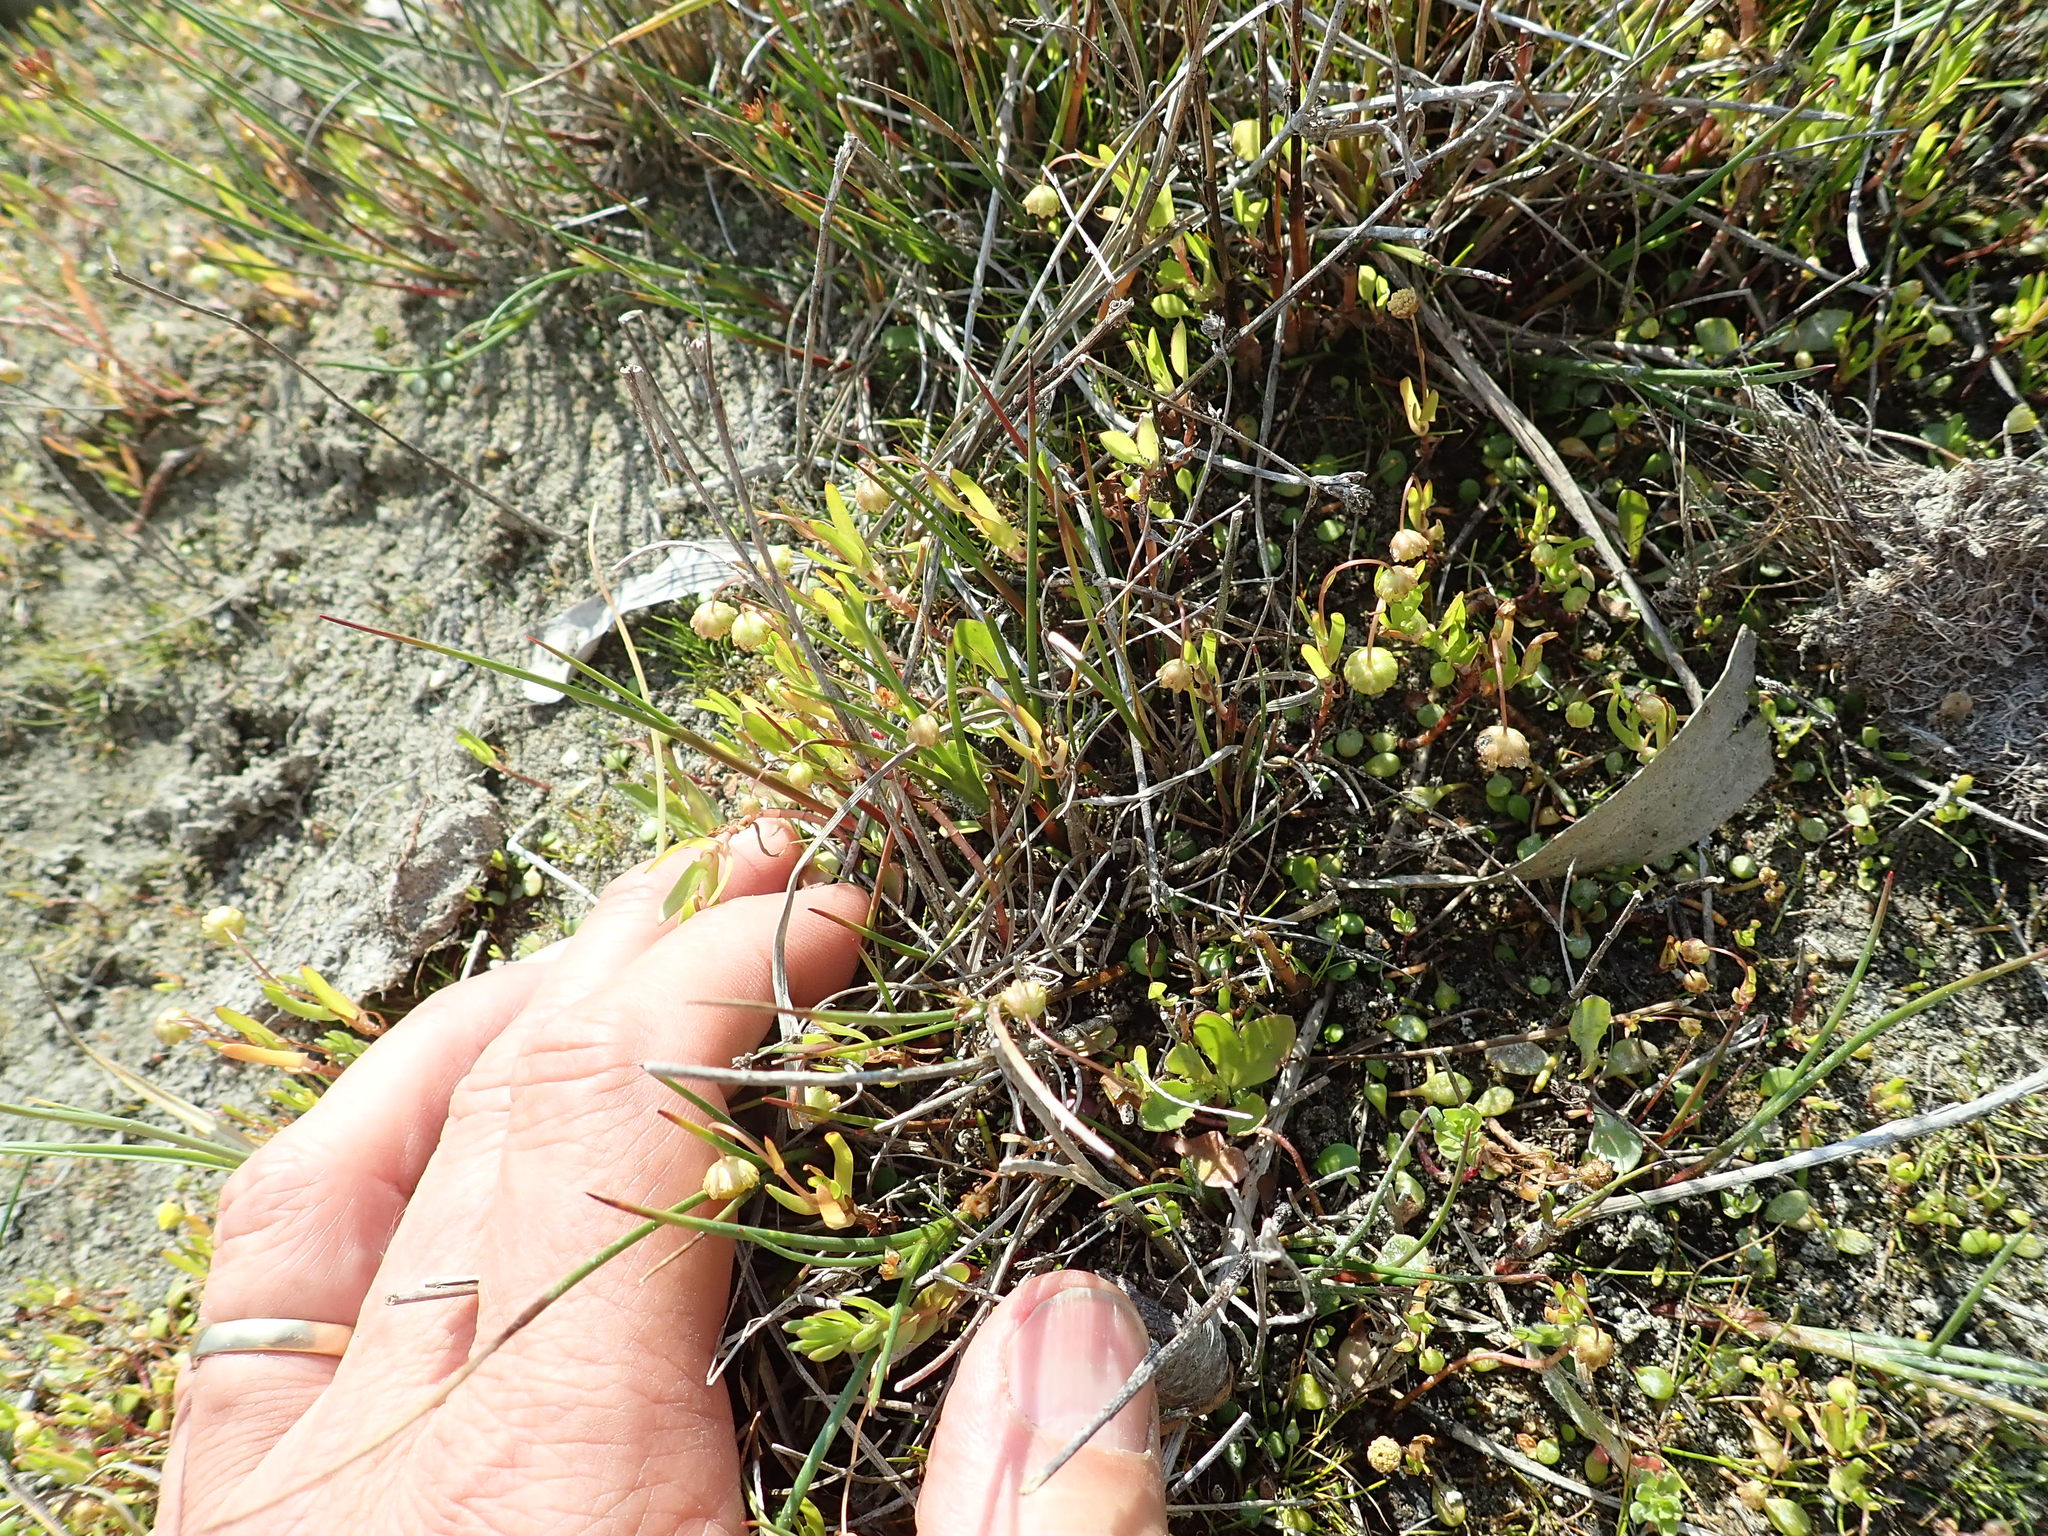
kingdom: Plantae
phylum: Tracheophyta
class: Magnoliopsida
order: Asterales
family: Asteraceae
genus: Cotula
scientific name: Cotula coronopifolia
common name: Buttonweed
